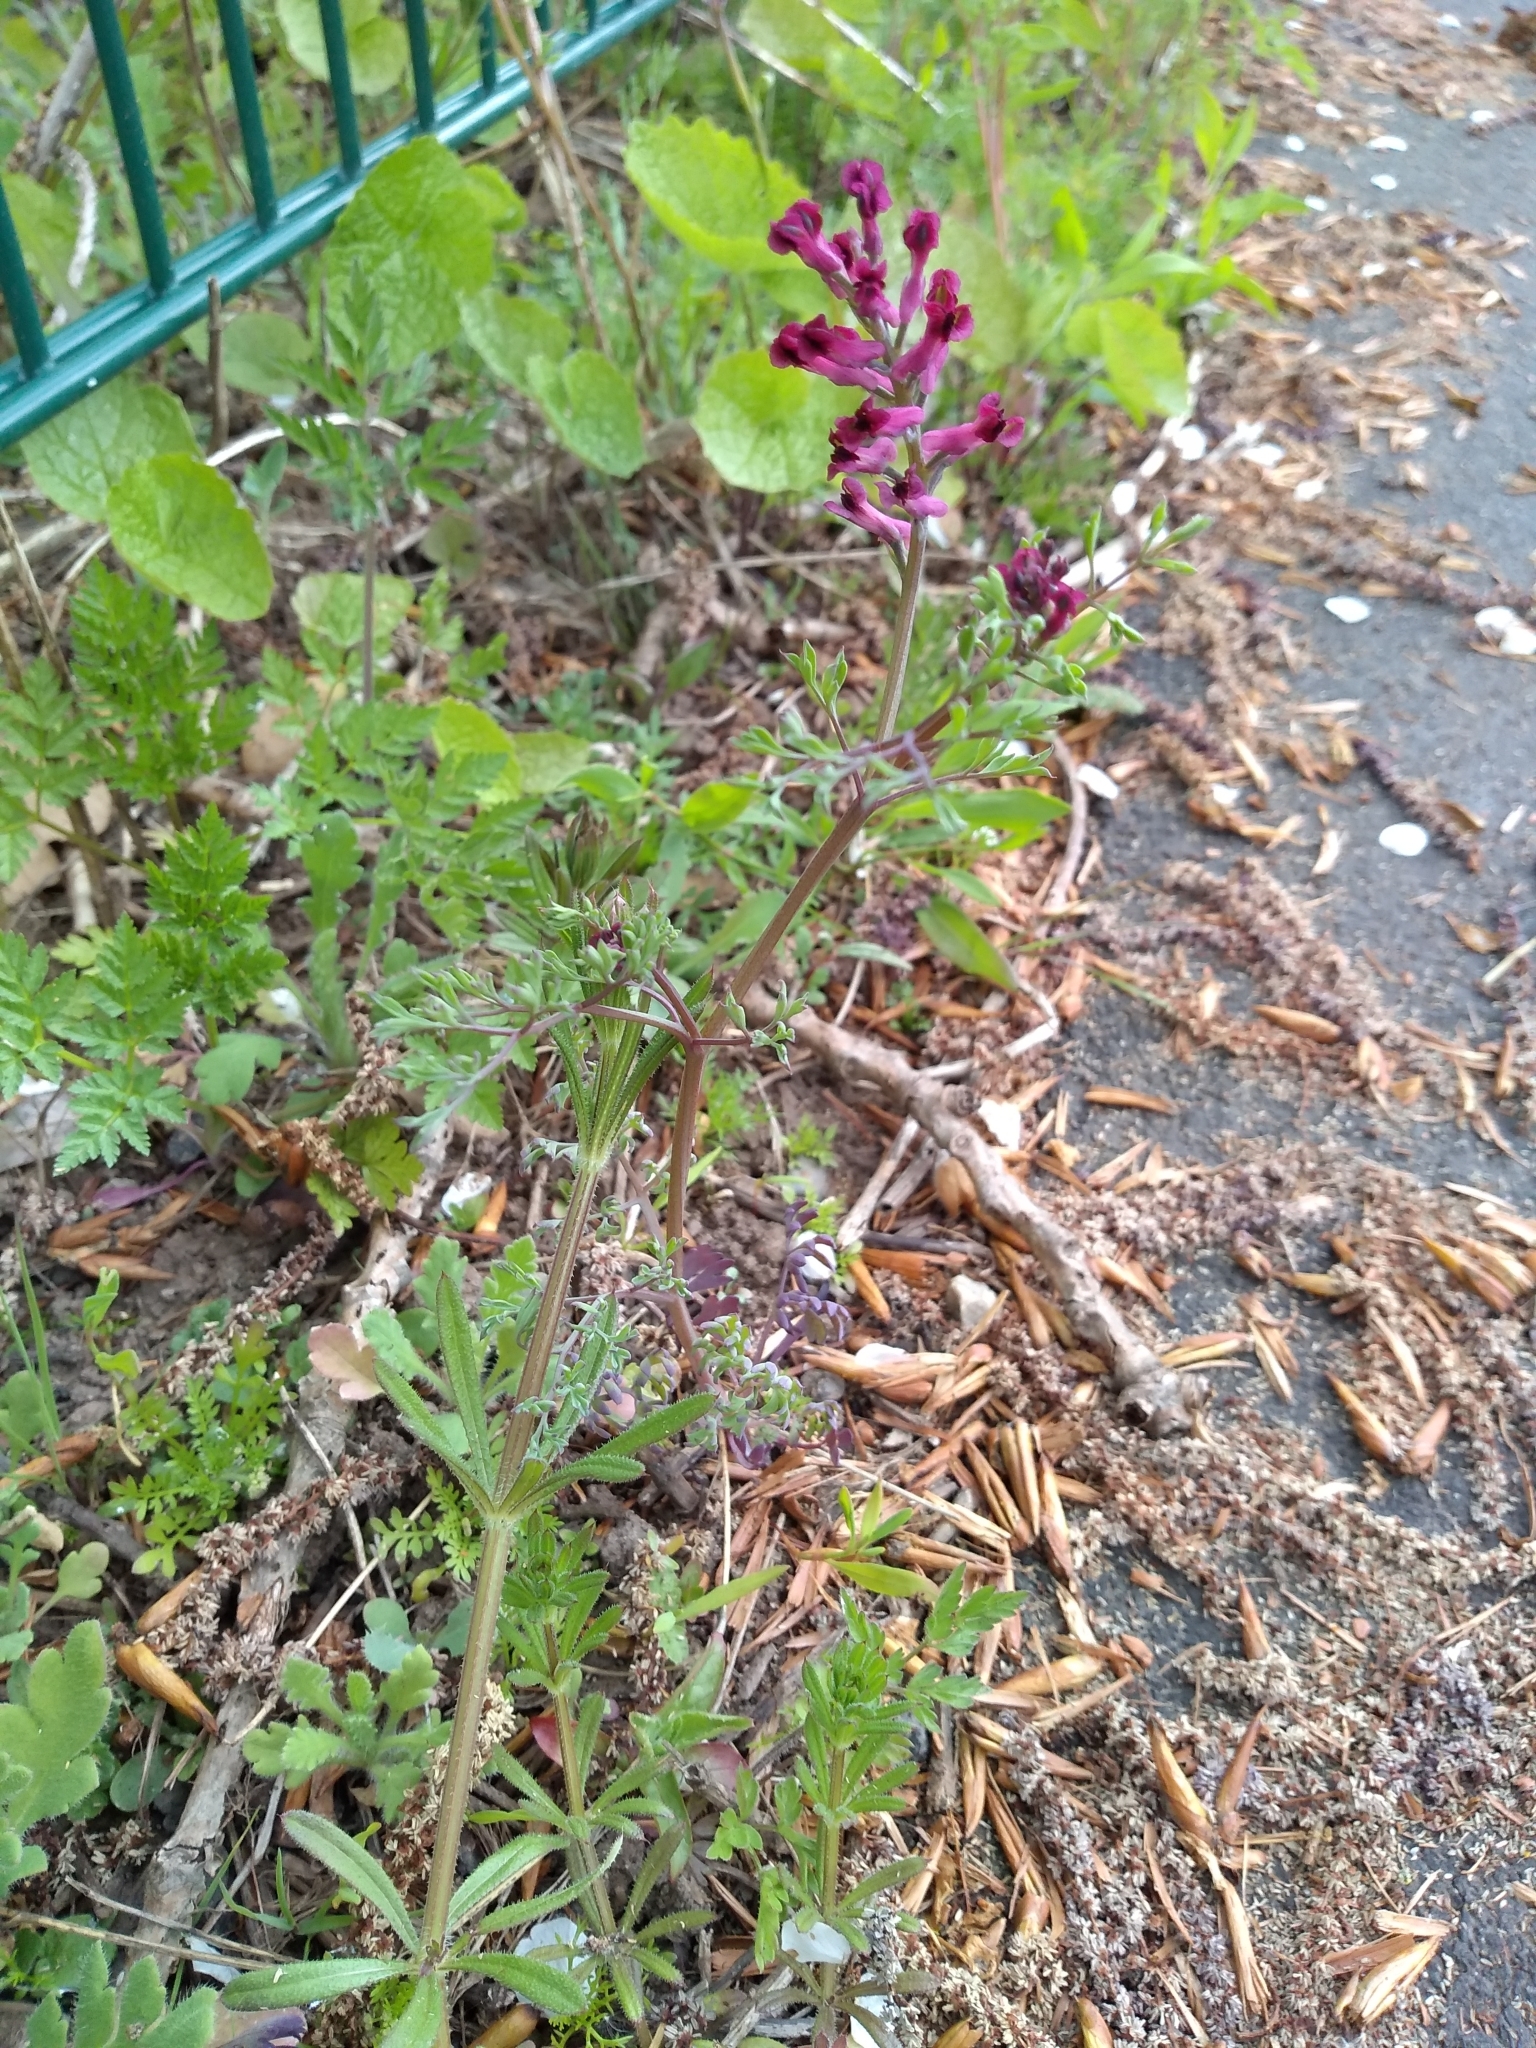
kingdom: Plantae
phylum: Tracheophyta
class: Magnoliopsida
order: Ranunculales
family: Papaveraceae
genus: Fumaria
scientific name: Fumaria officinalis
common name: Common fumitory
